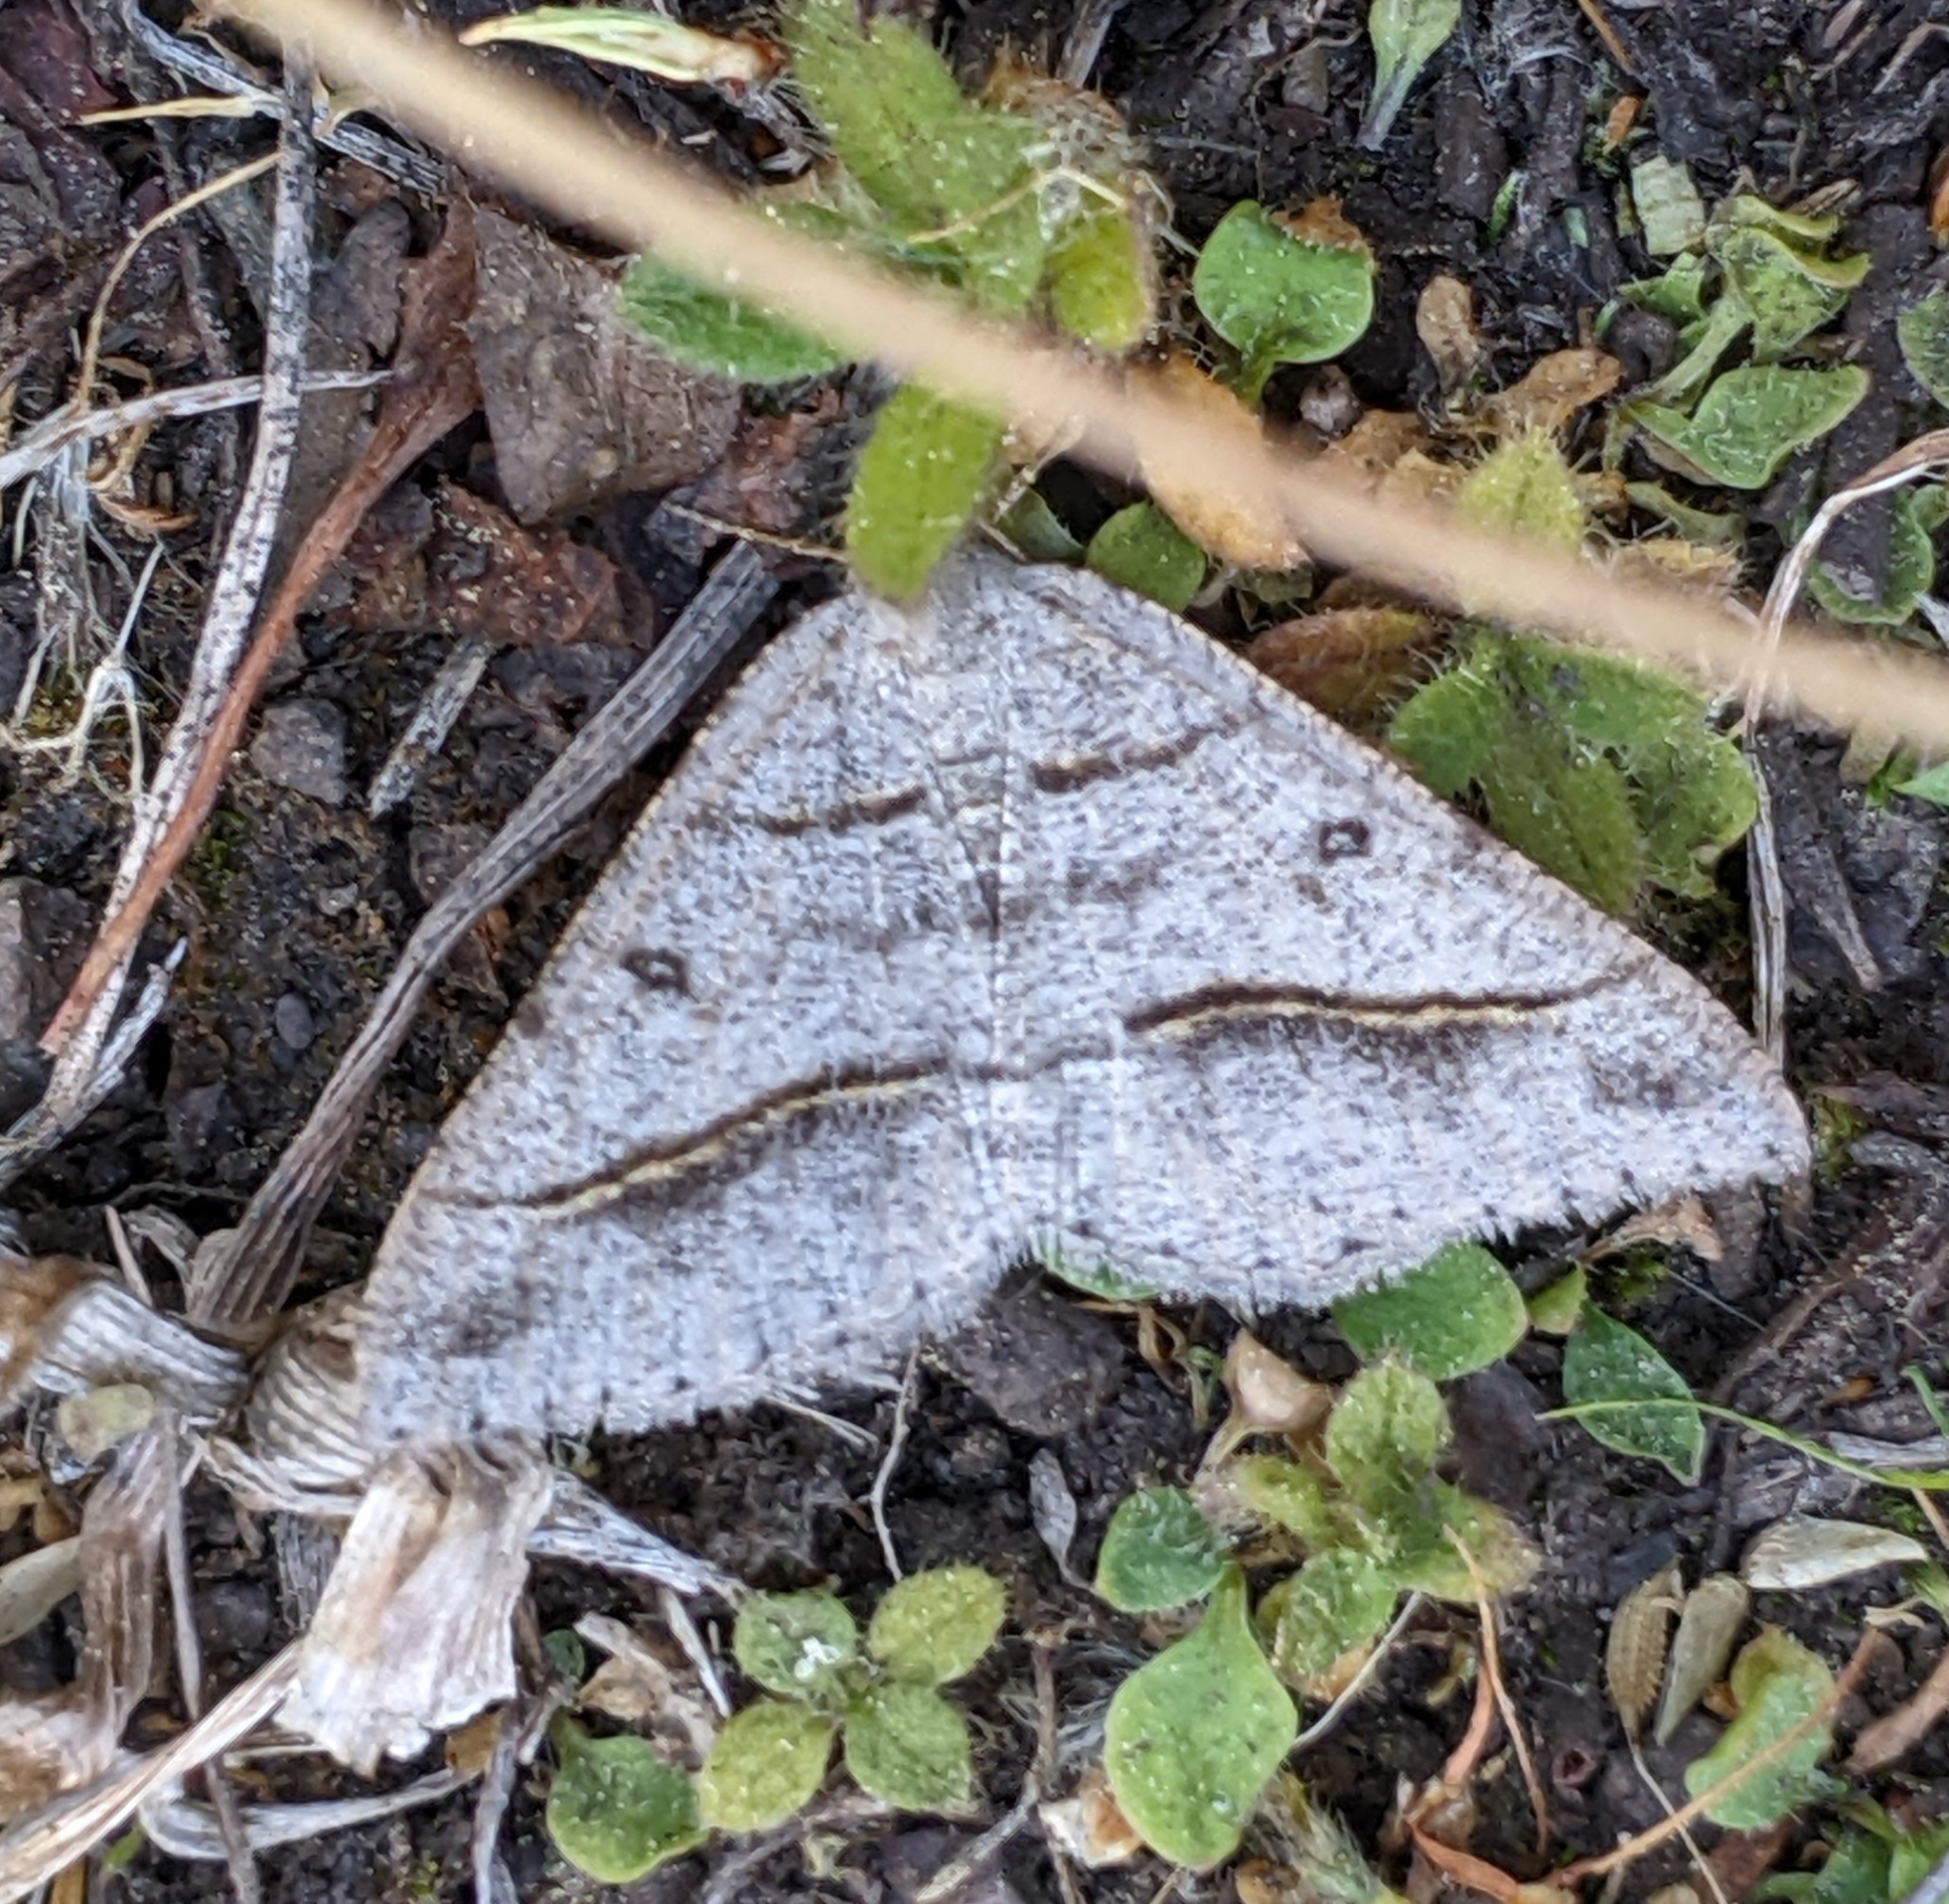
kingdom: Animalia
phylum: Arthropoda
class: Insecta
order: Lepidoptera
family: Geometridae
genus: Digrammia
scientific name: Digrammia neptaria
